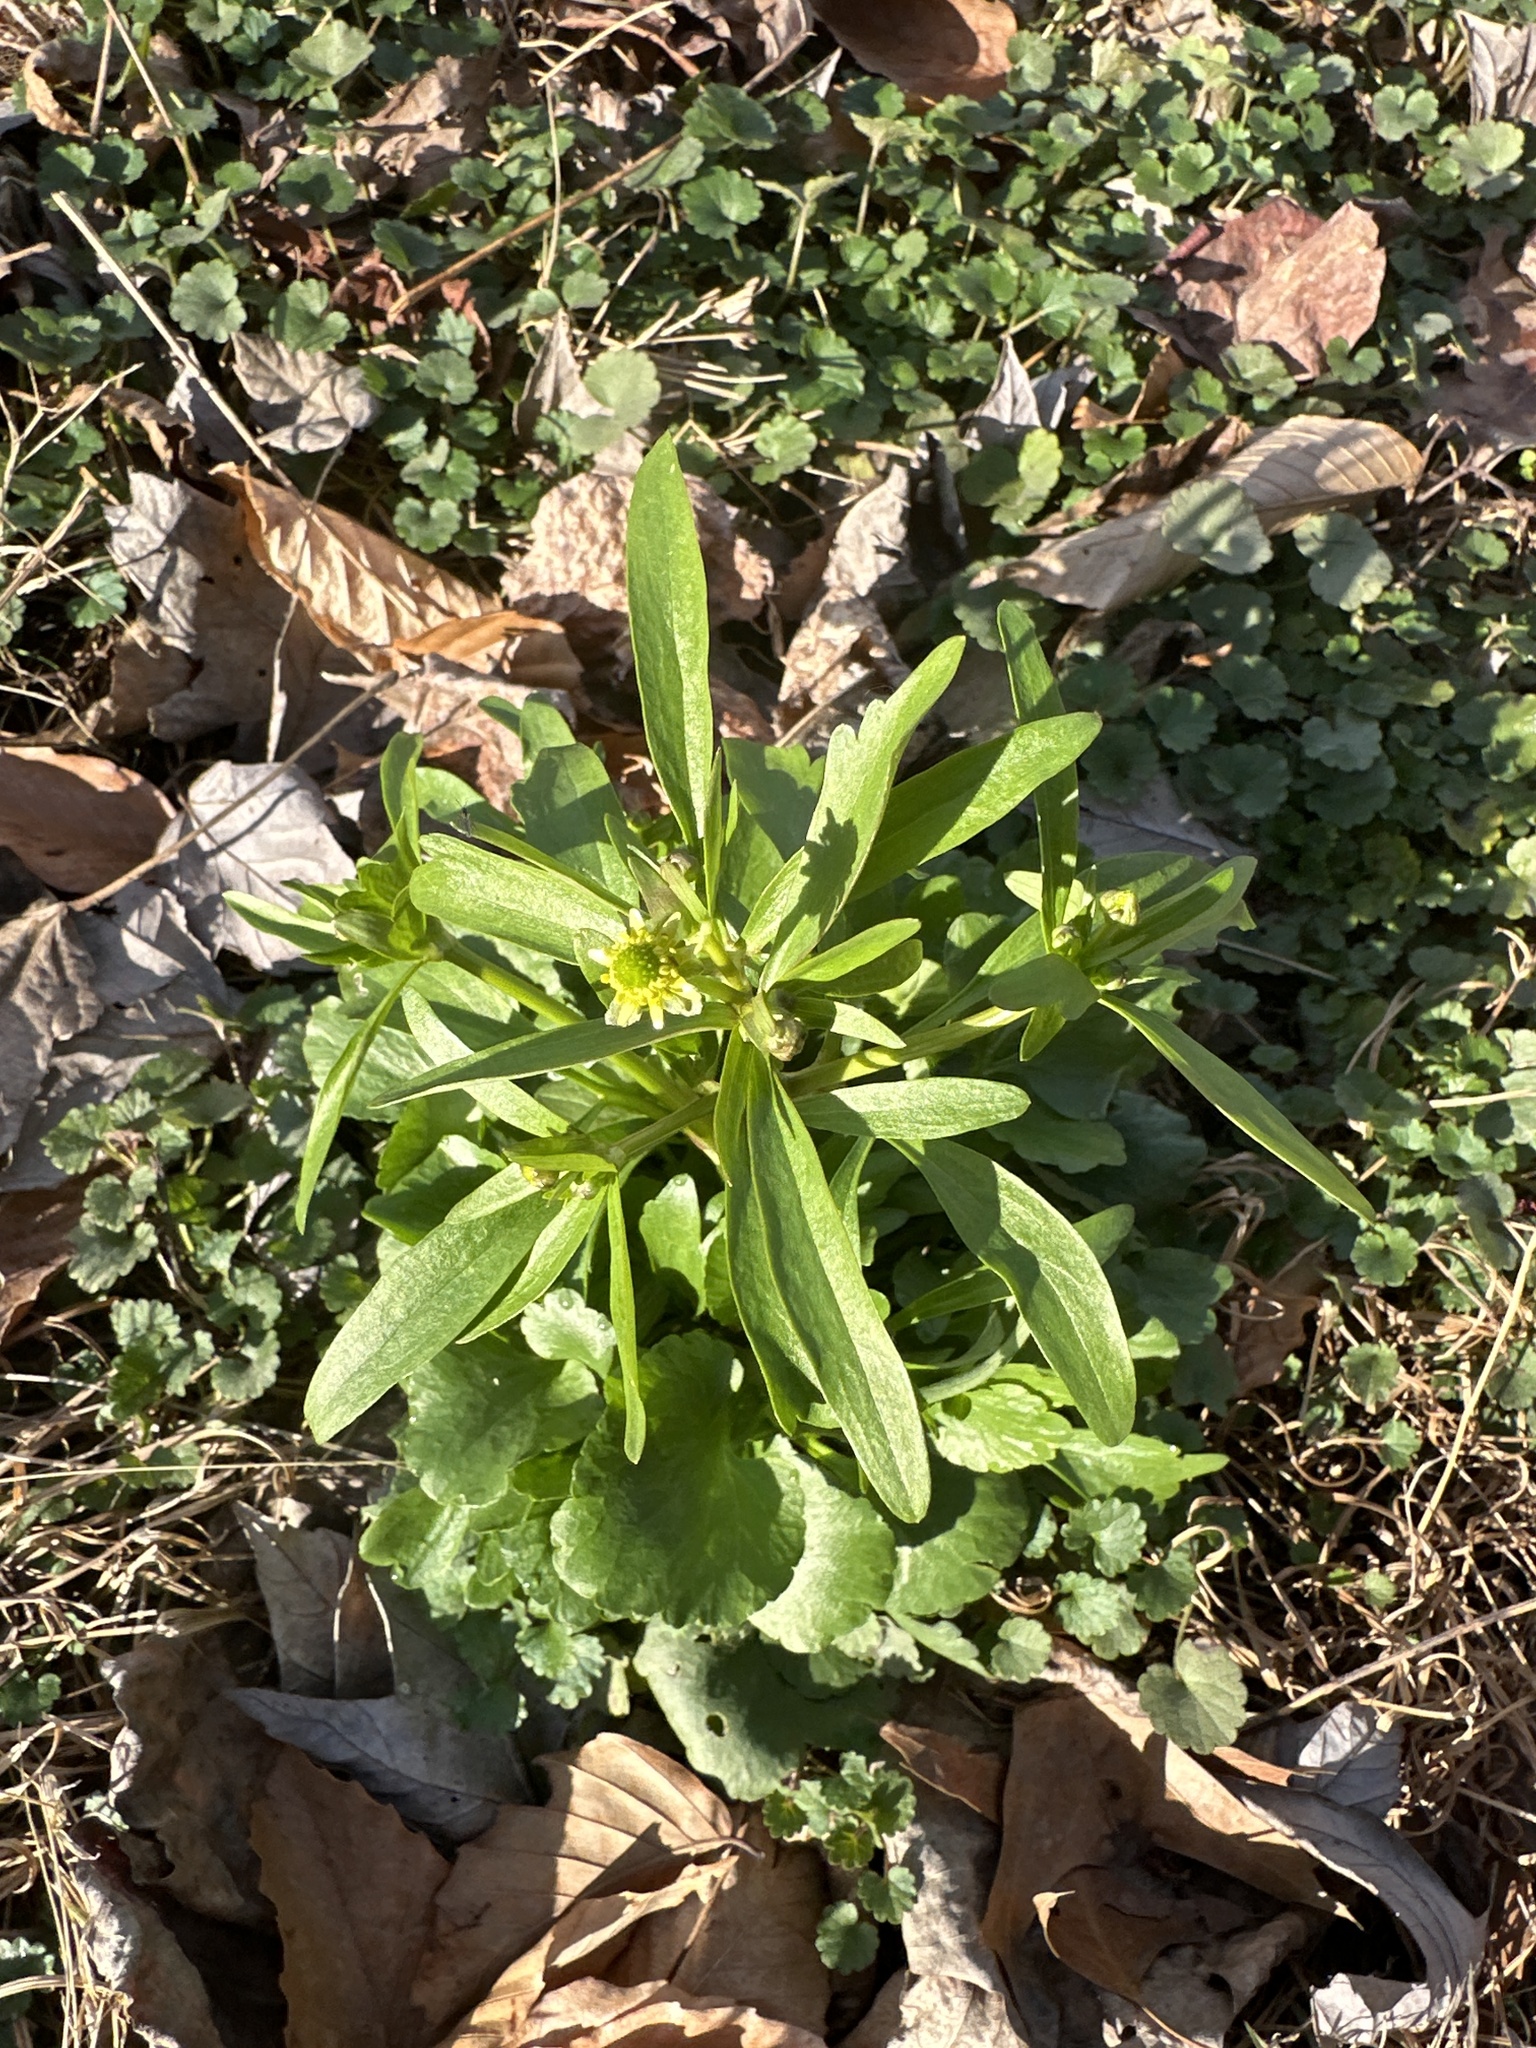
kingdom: Plantae
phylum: Tracheophyta
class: Magnoliopsida
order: Ranunculales
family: Ranunculaceae
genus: Ranunculus
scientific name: Ranunculus abortivus
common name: Early wood buttercup
